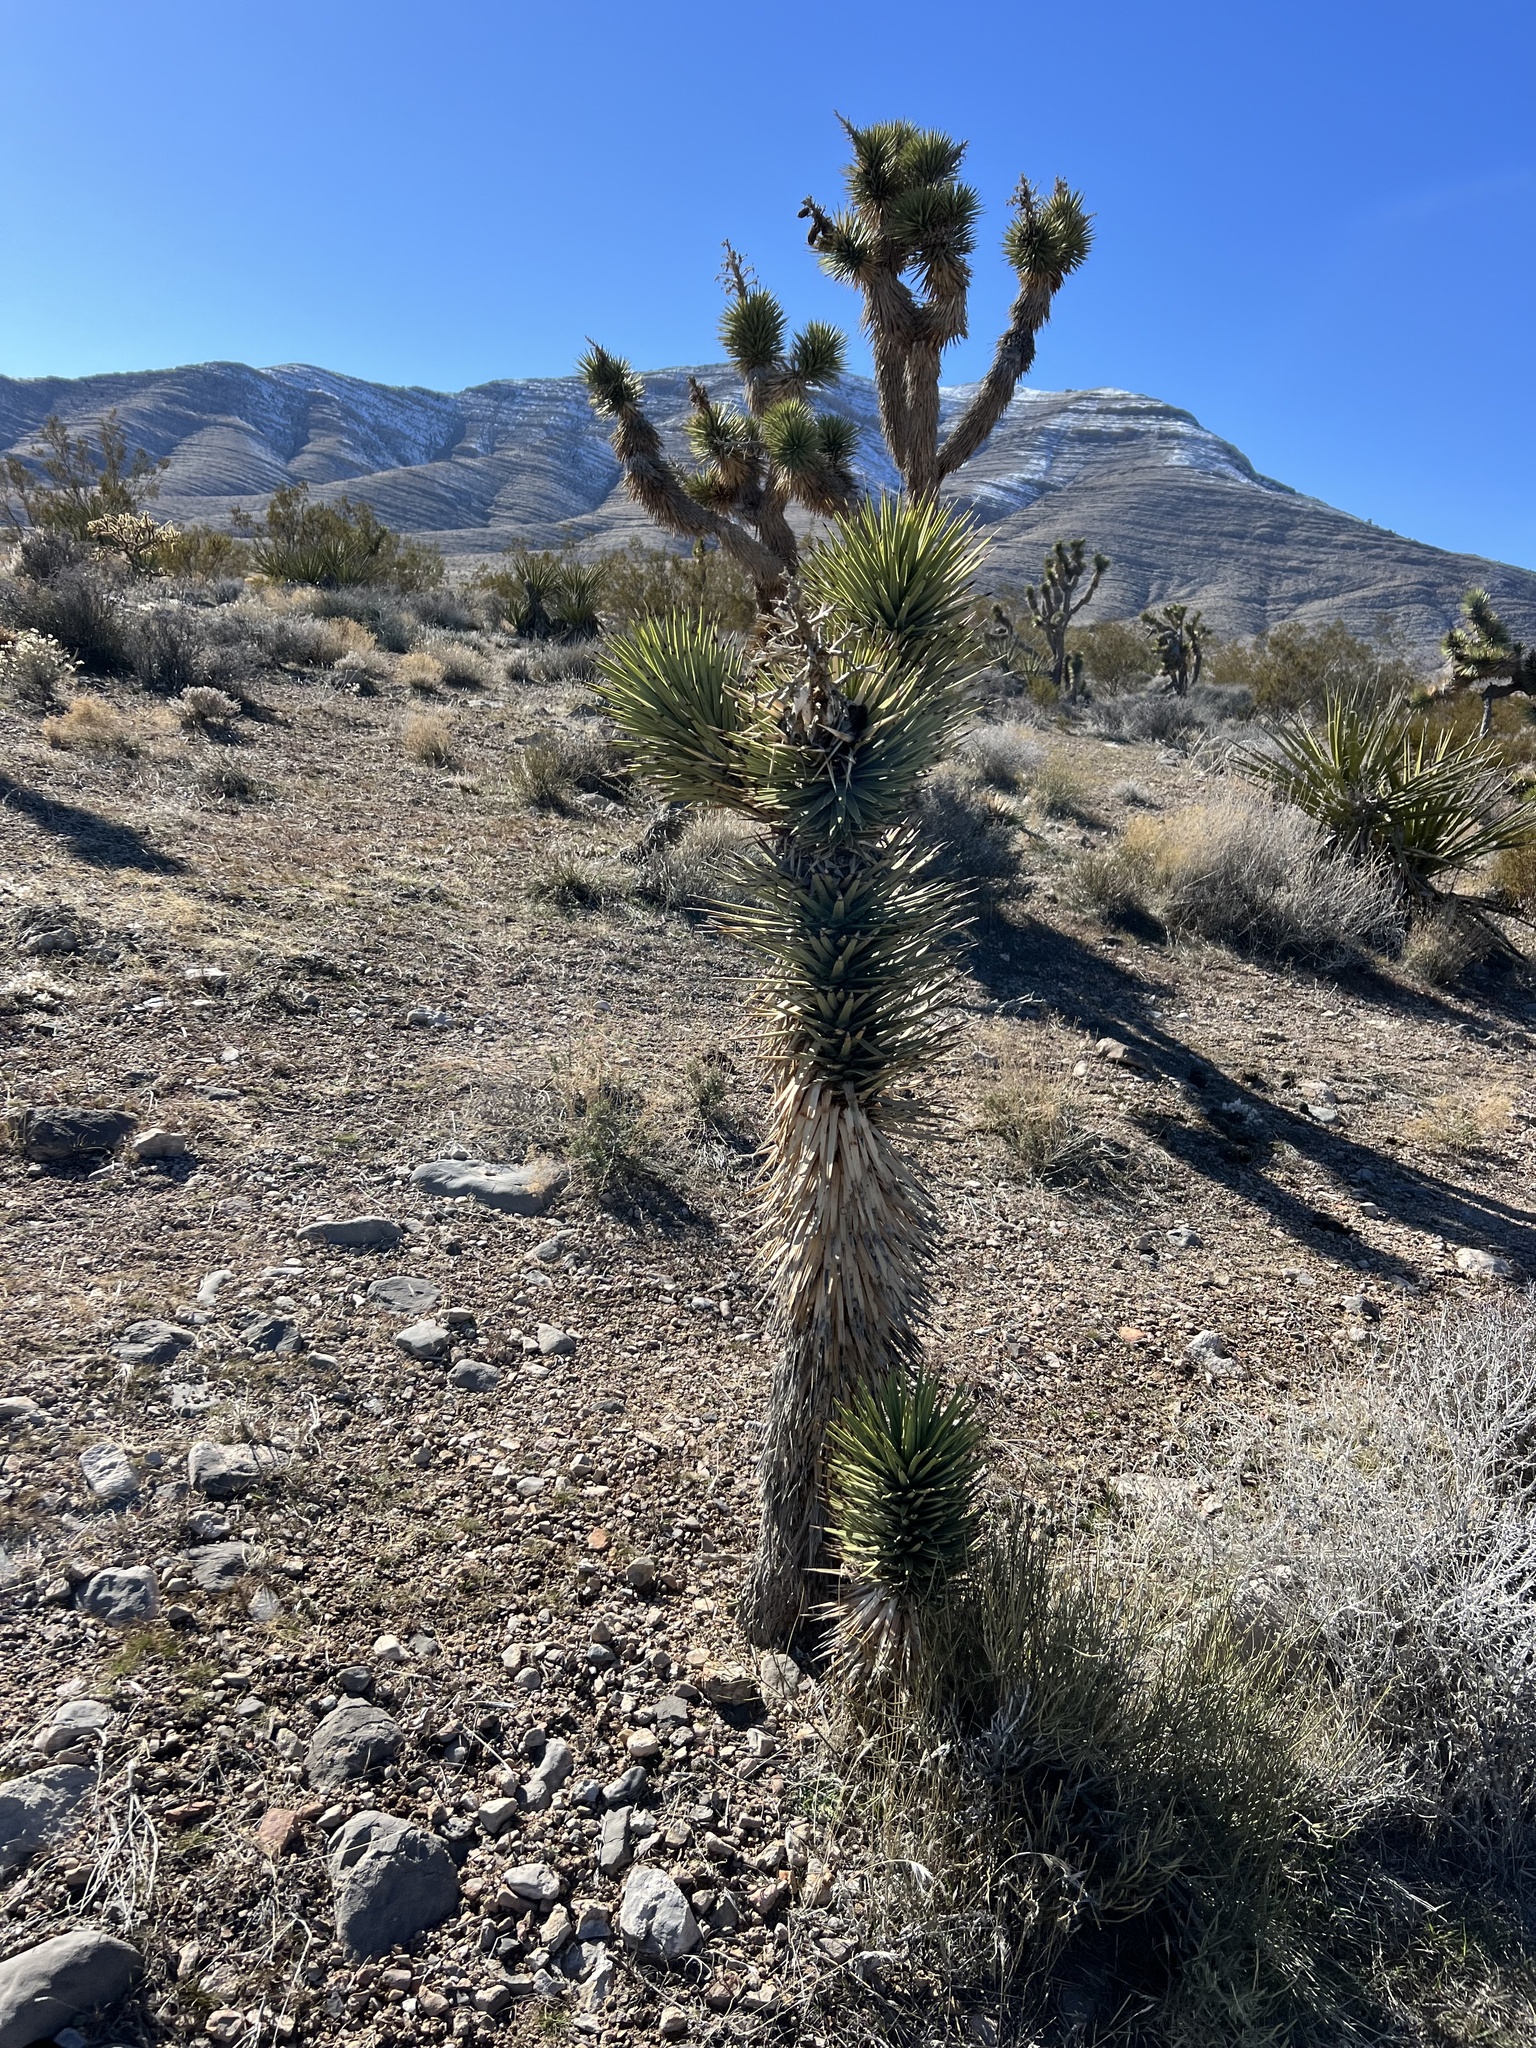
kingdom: Plantae
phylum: Tracheophyta
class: Liliopsida
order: Asparagales
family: Asparagaceae
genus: Yucca
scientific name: Yucca brevifolia
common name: Joshua tree
